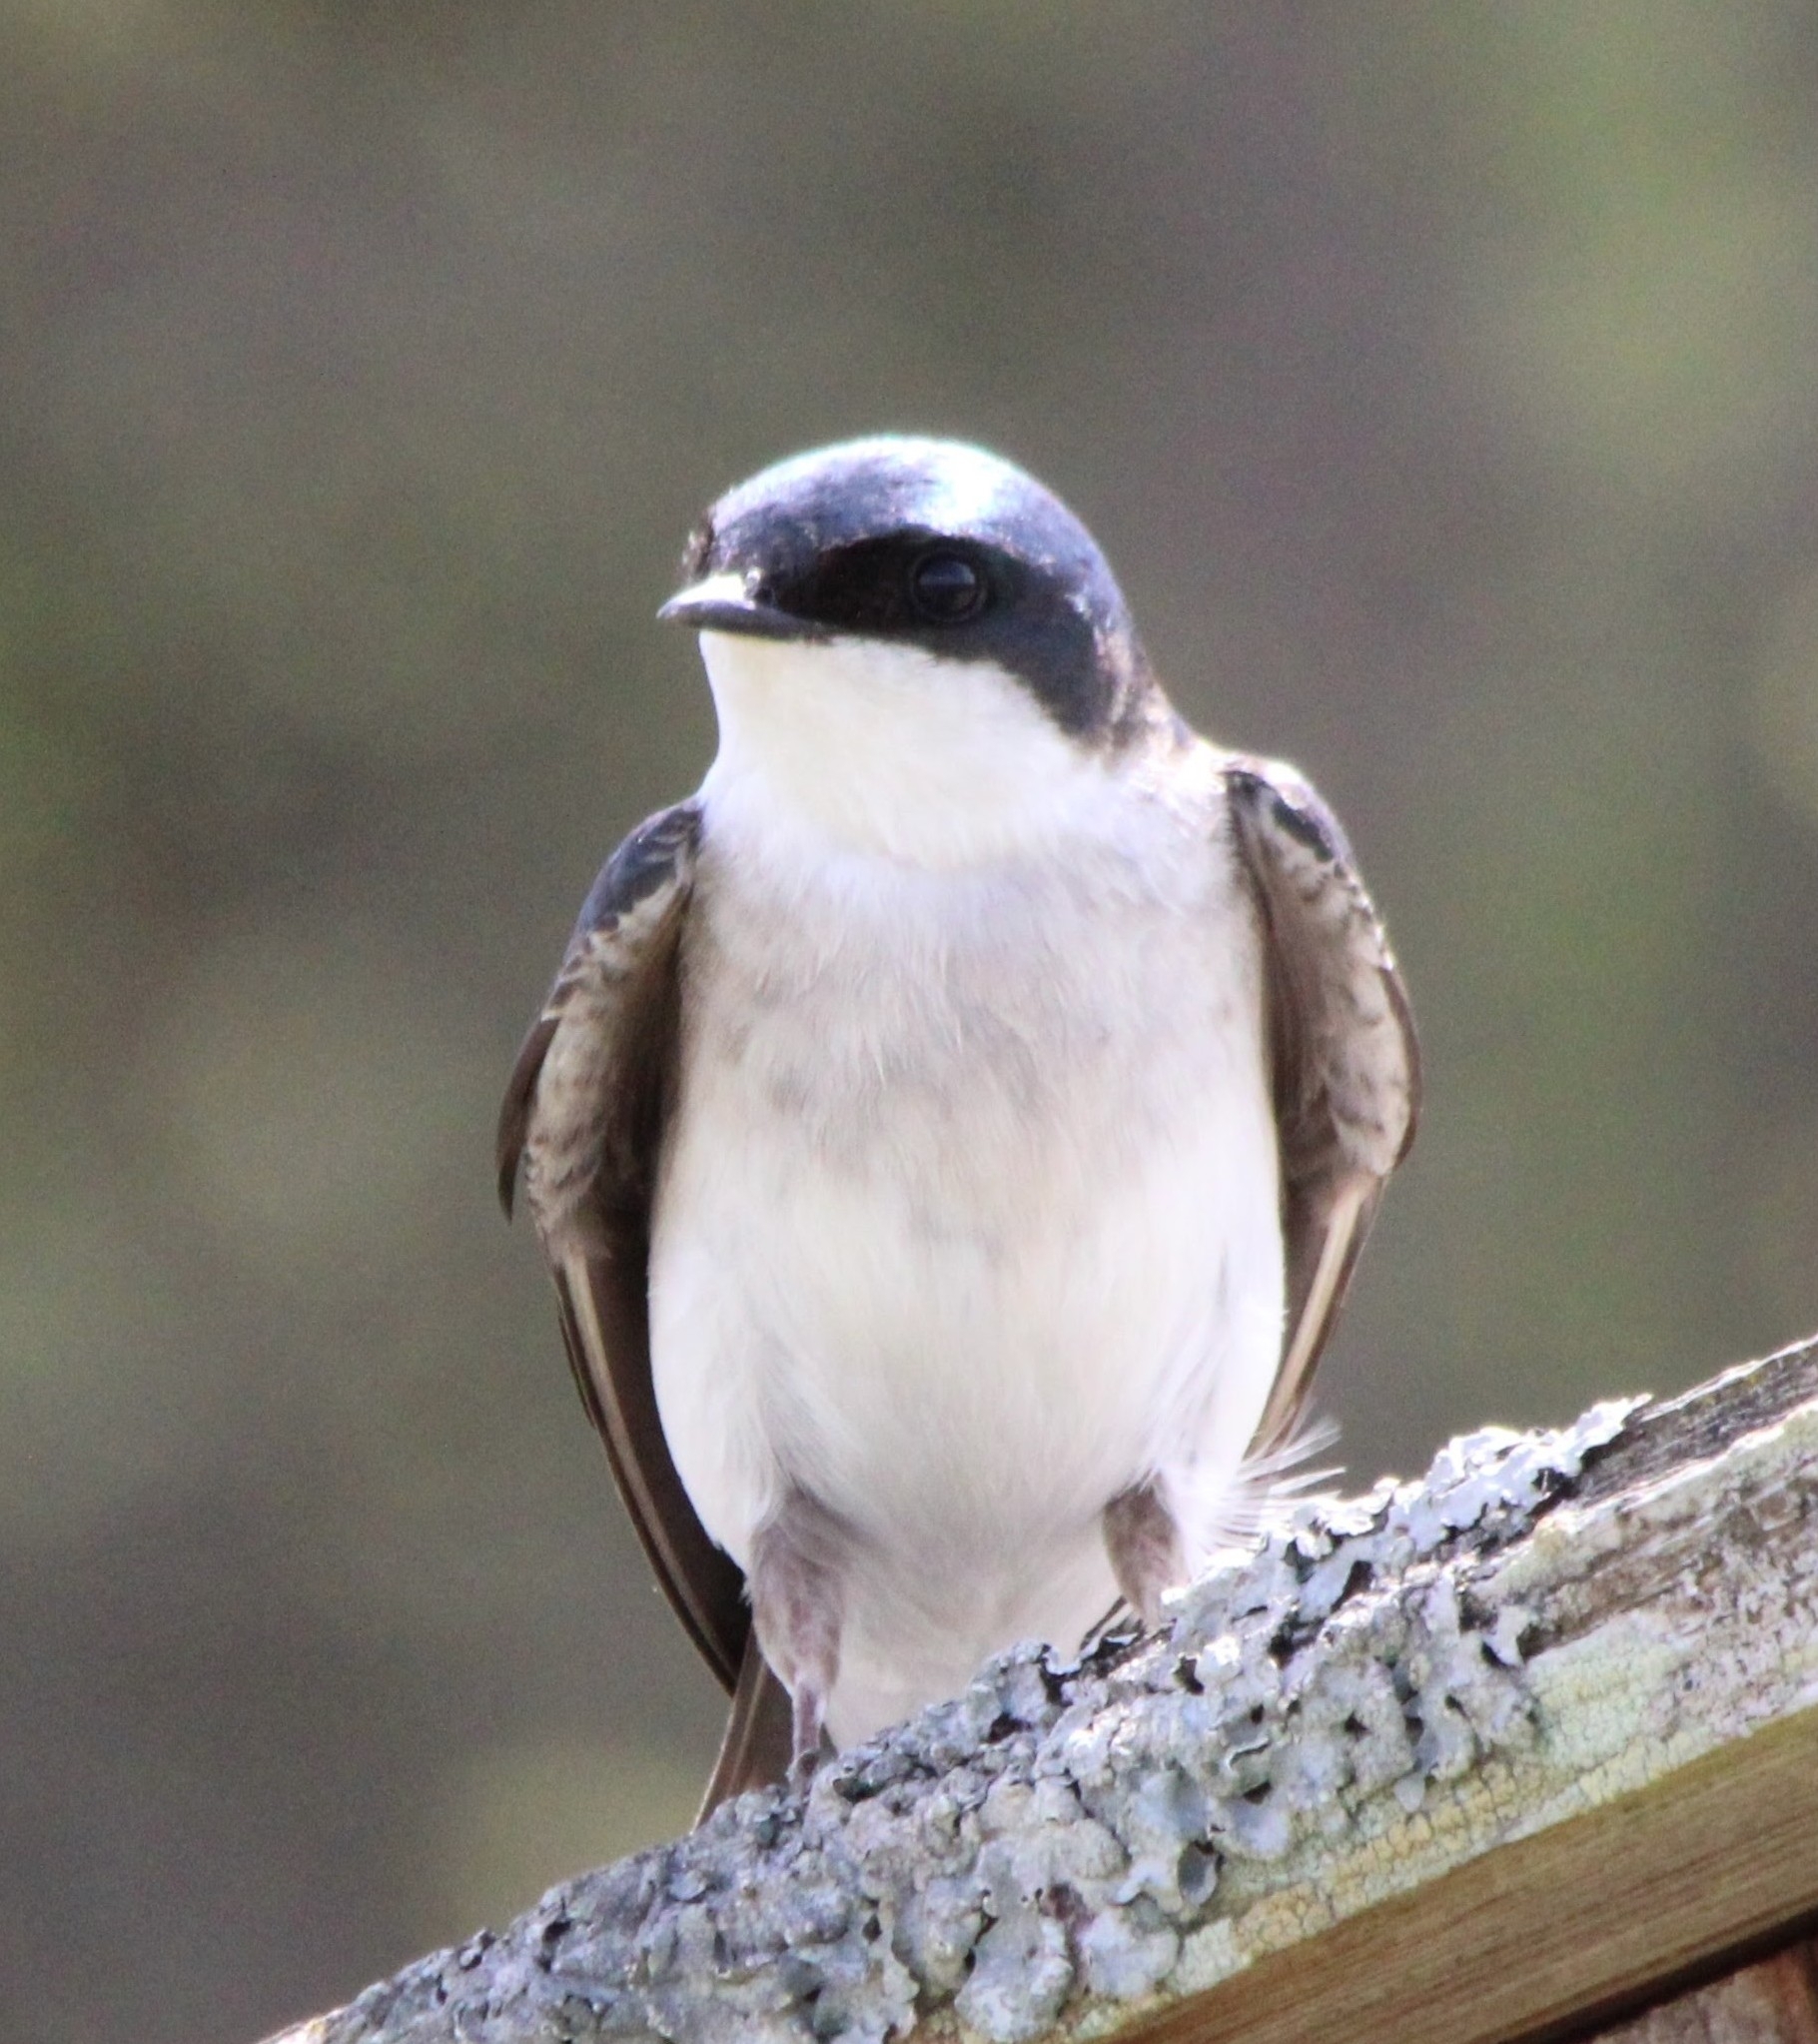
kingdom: Animalia
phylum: Chordata
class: Aves
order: Passeriformes
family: Hirundinidae
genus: Tachycineta
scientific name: Tachycineta bicolor
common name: Tree swallow
